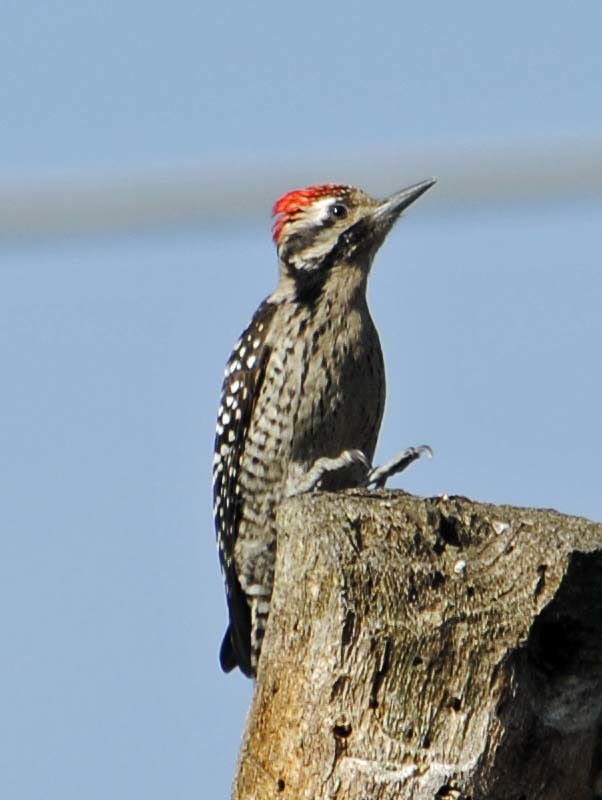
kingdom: Animalia
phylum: Chordata
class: Aves
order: Piciformes
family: Picidae
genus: Dryobates
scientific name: Dryobates scalaris
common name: Ladder-backed woodpecker
